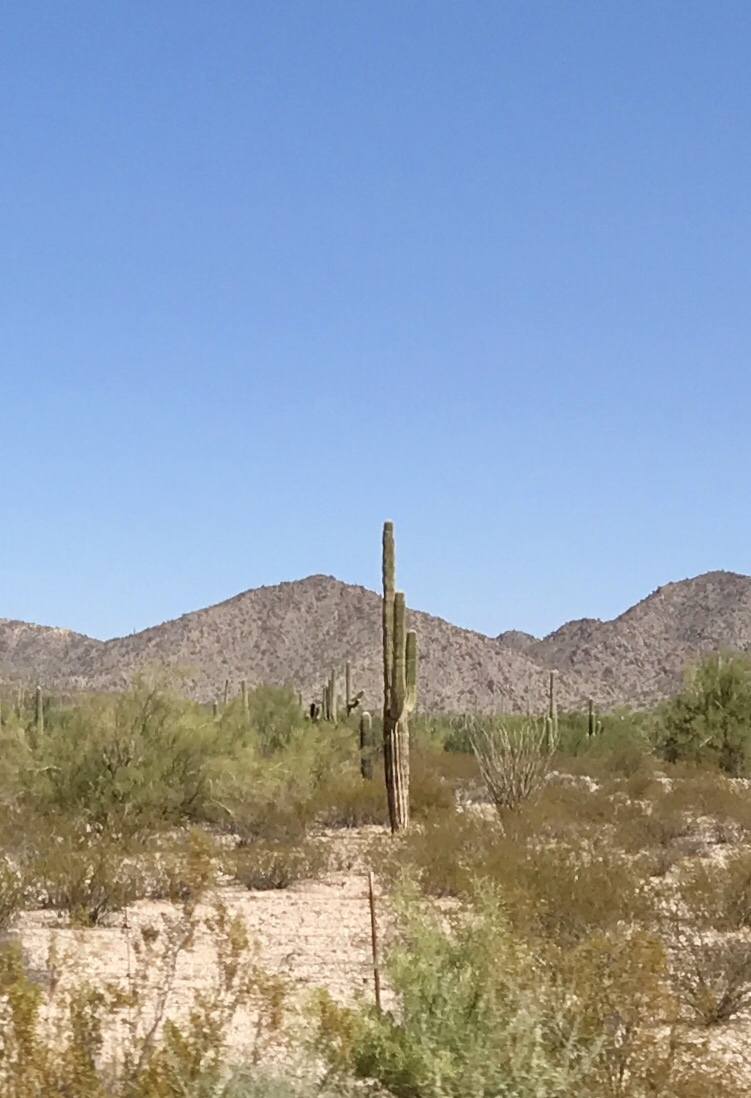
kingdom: Plantae
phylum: Tracheophyta
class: Magnoliopsida
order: Caryophyllales
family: Cactaceae
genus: Carnegiea
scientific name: Carnegiea gigantea
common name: Saguaro
